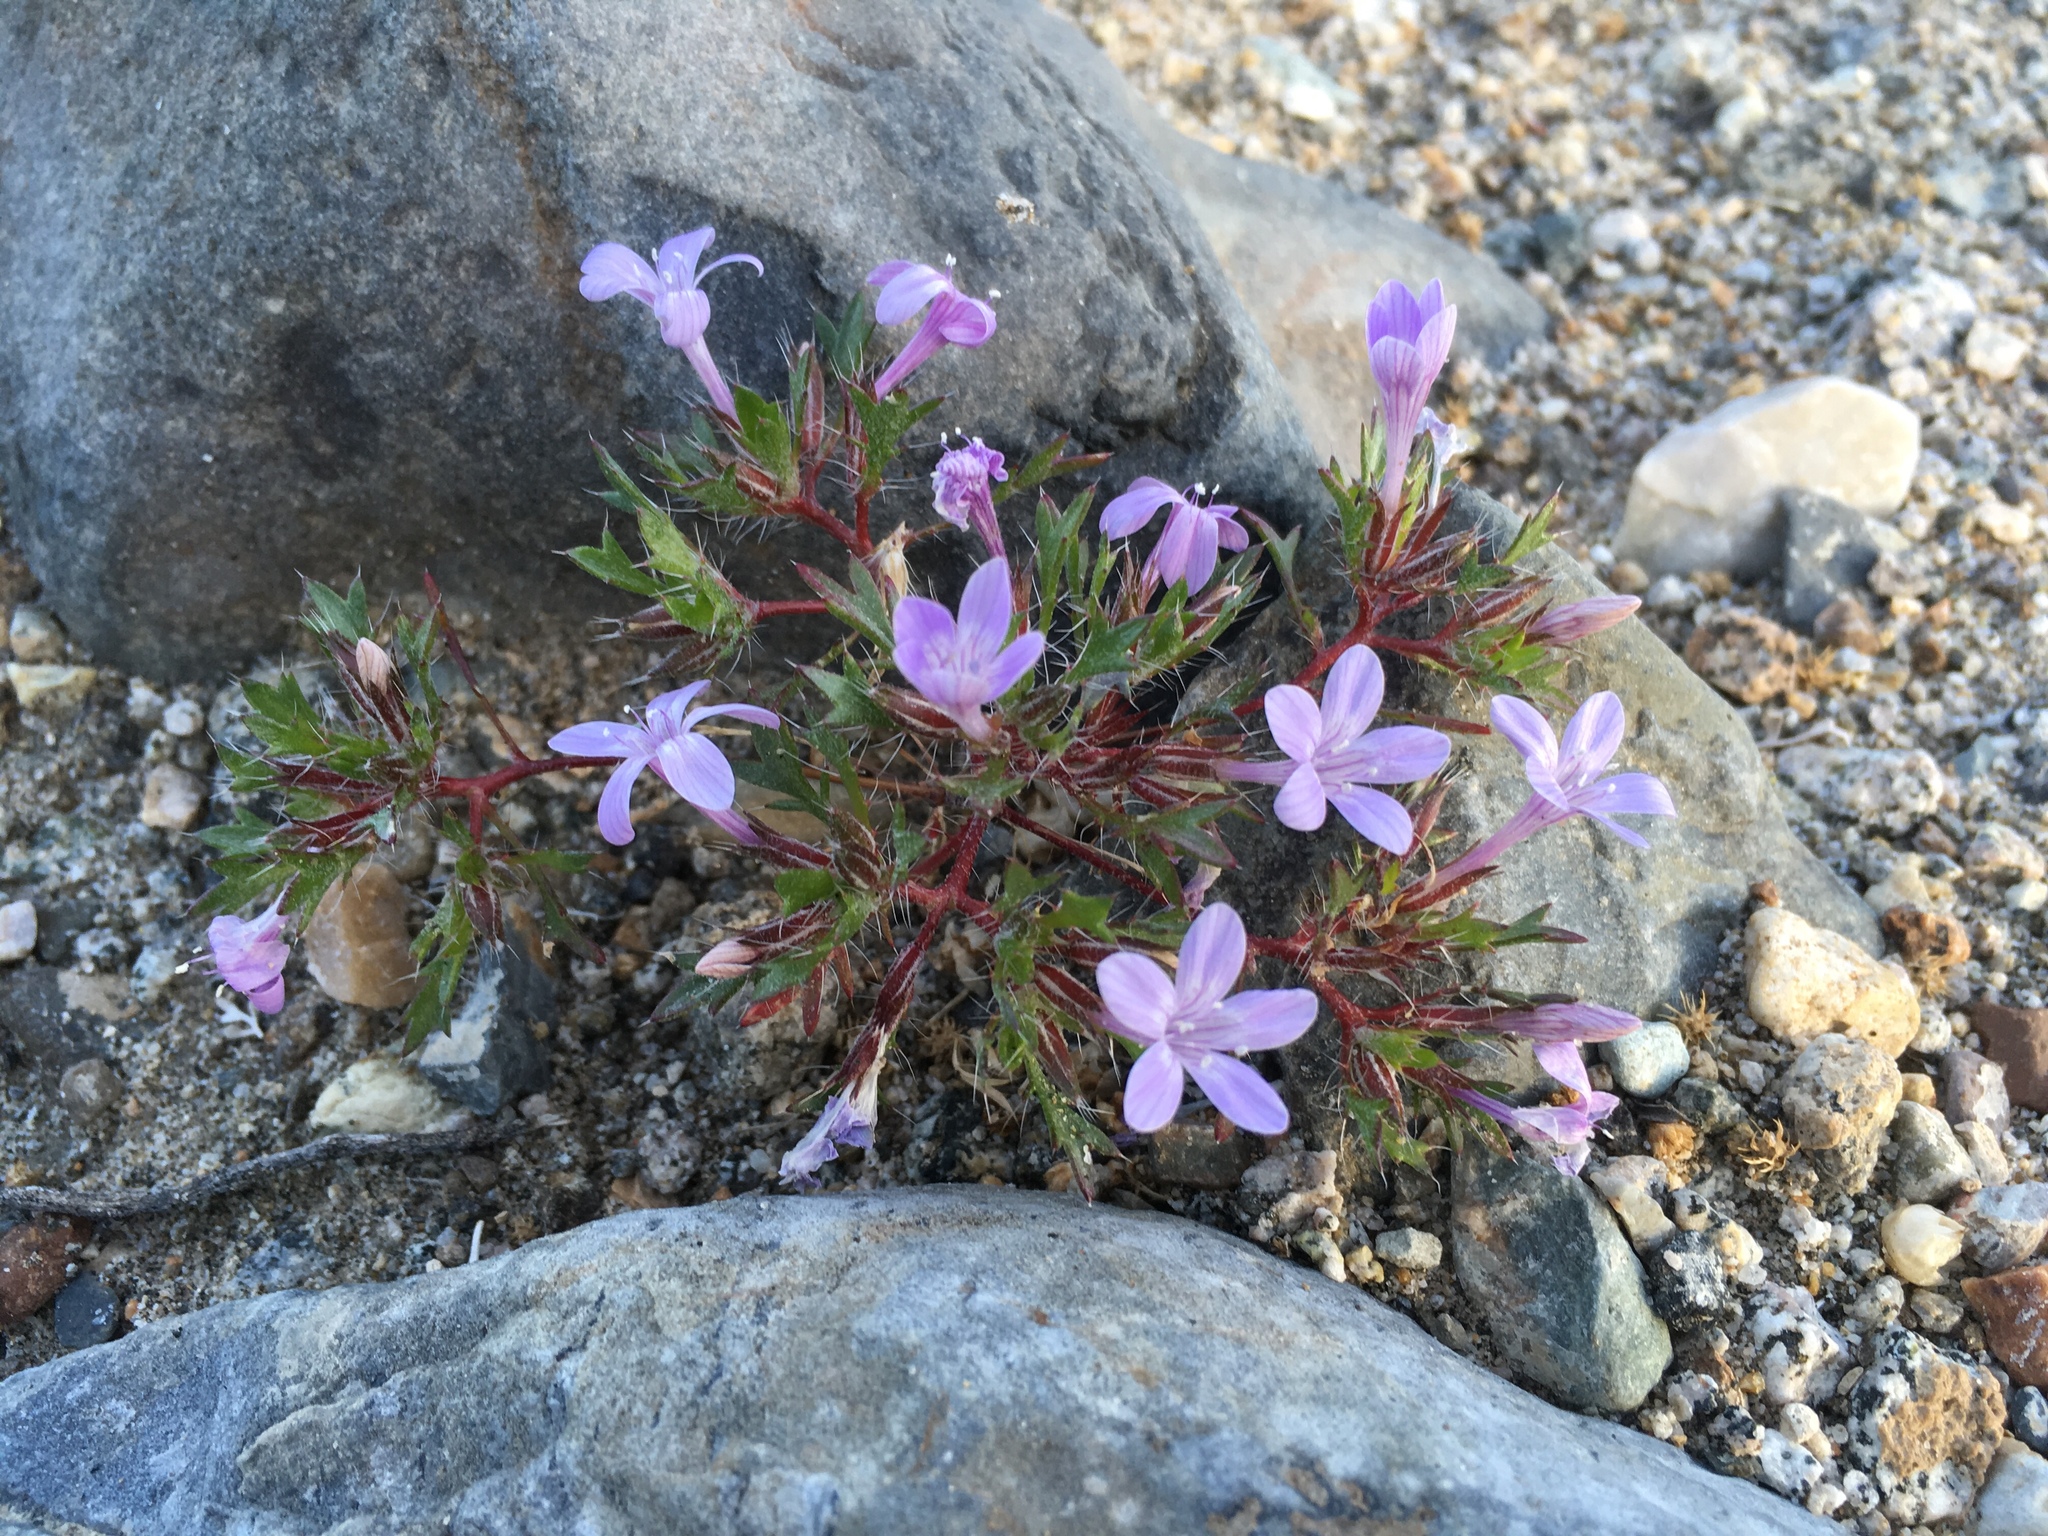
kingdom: Plantae
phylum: Tracheophyta
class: Magnoliopsida
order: Ericales
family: Polemoniaceae
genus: Langloisia
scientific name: Langloisia setosissima
